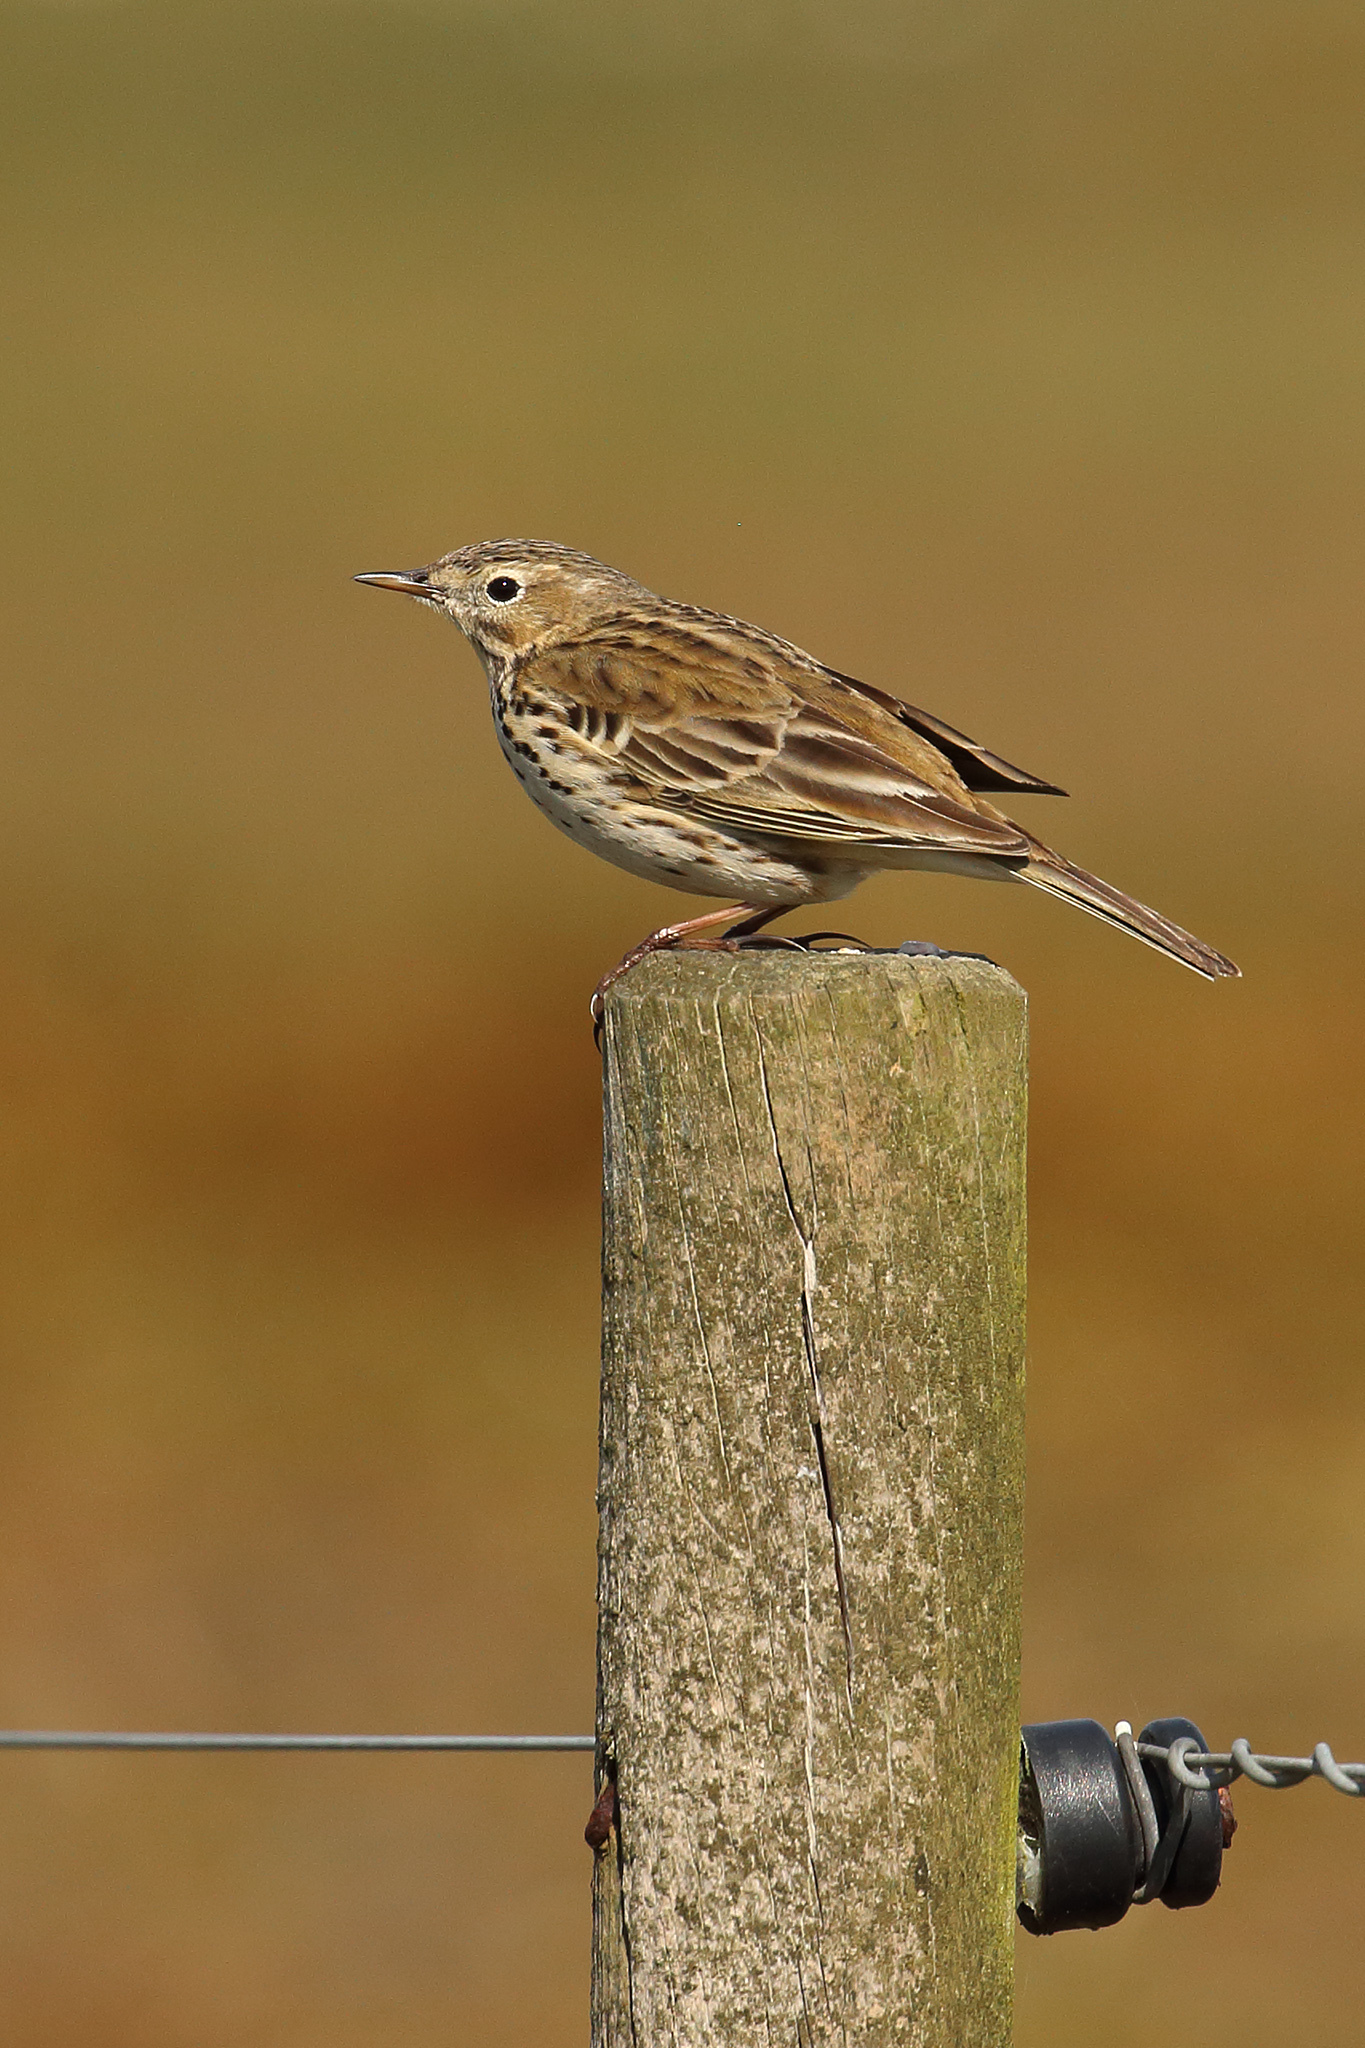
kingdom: Animalia
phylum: Chordata
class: Aves
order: Passeriformes
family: Motacillidae
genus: Anthus
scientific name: Anthus pratensis
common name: Meadow pipit
